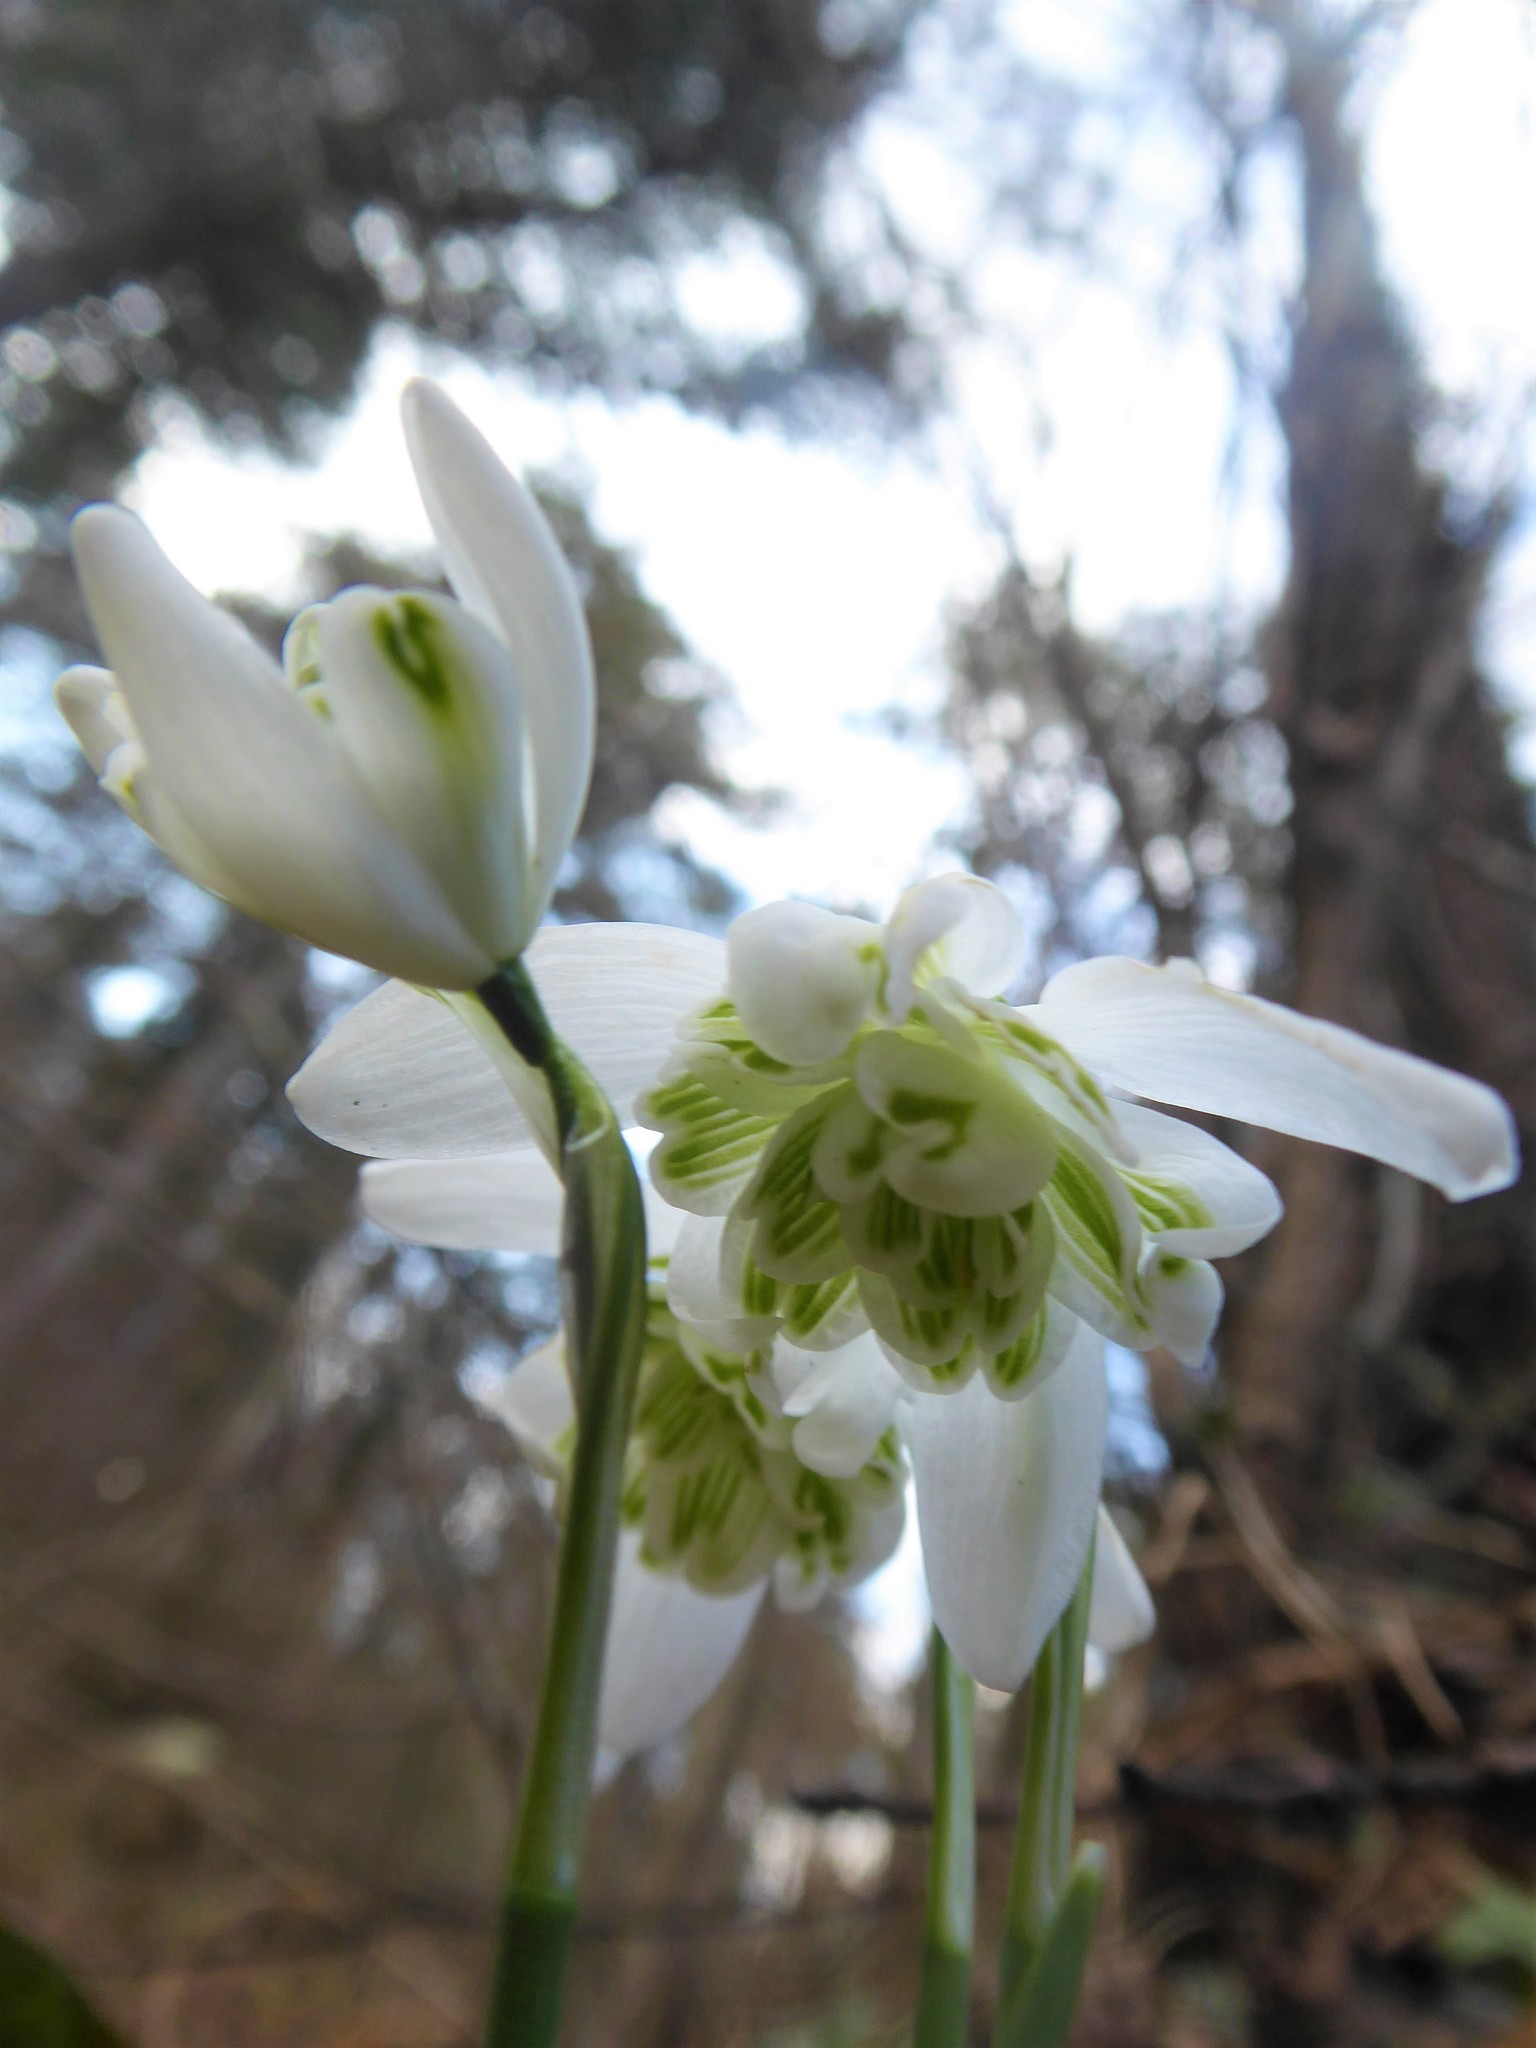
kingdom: Plantae
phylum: Tracheophyta
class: Liliopsida
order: Asparagales
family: Amaryllidaceae
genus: Galanthus
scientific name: Galanthus nivalis
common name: Snowdrop
